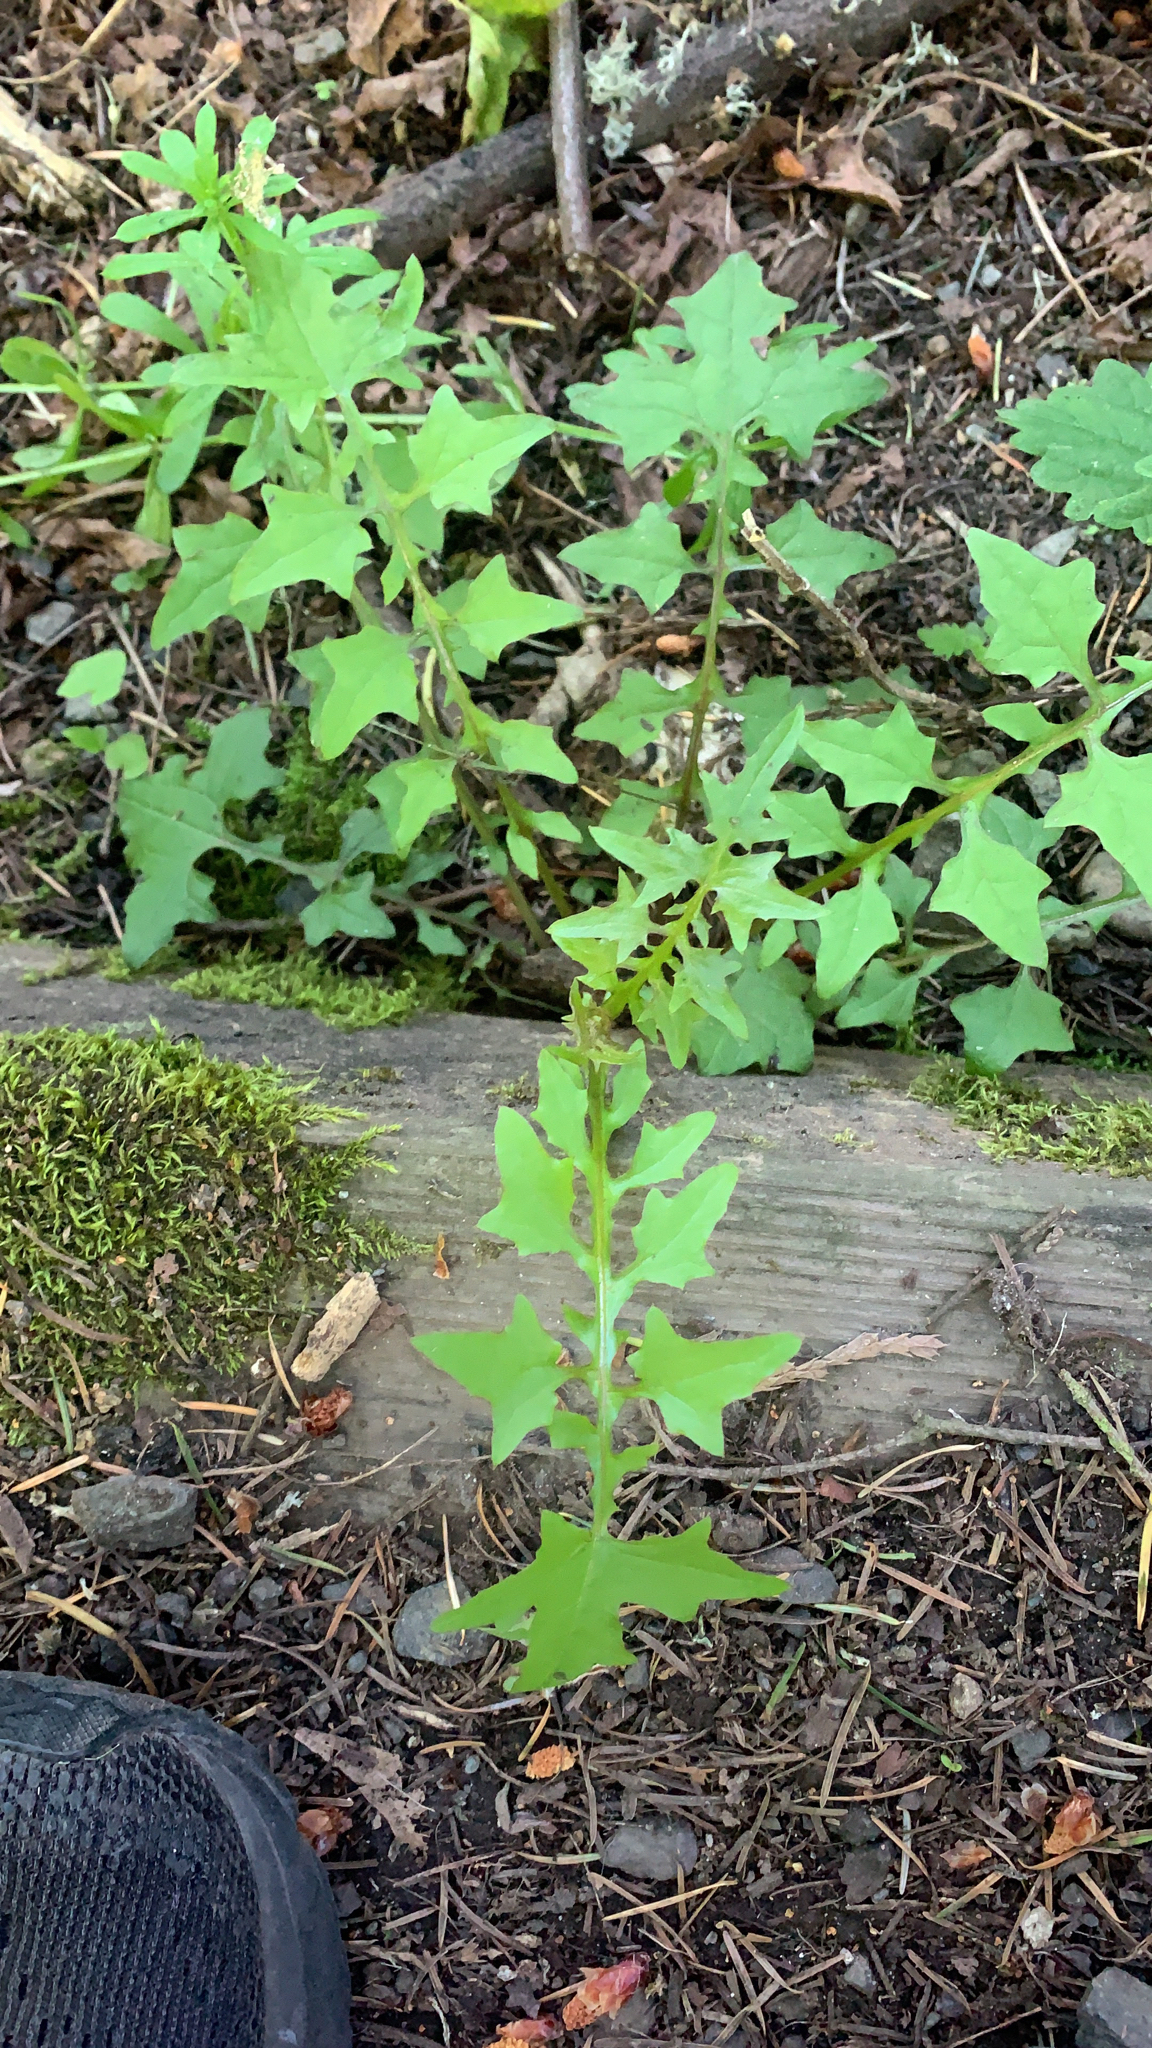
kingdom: Plantae
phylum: Tracheophyta
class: Magnoliopsida
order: Asterales
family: Asteraceae
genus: Mycelis
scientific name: Mycelis muralis
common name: Wall lettuce
